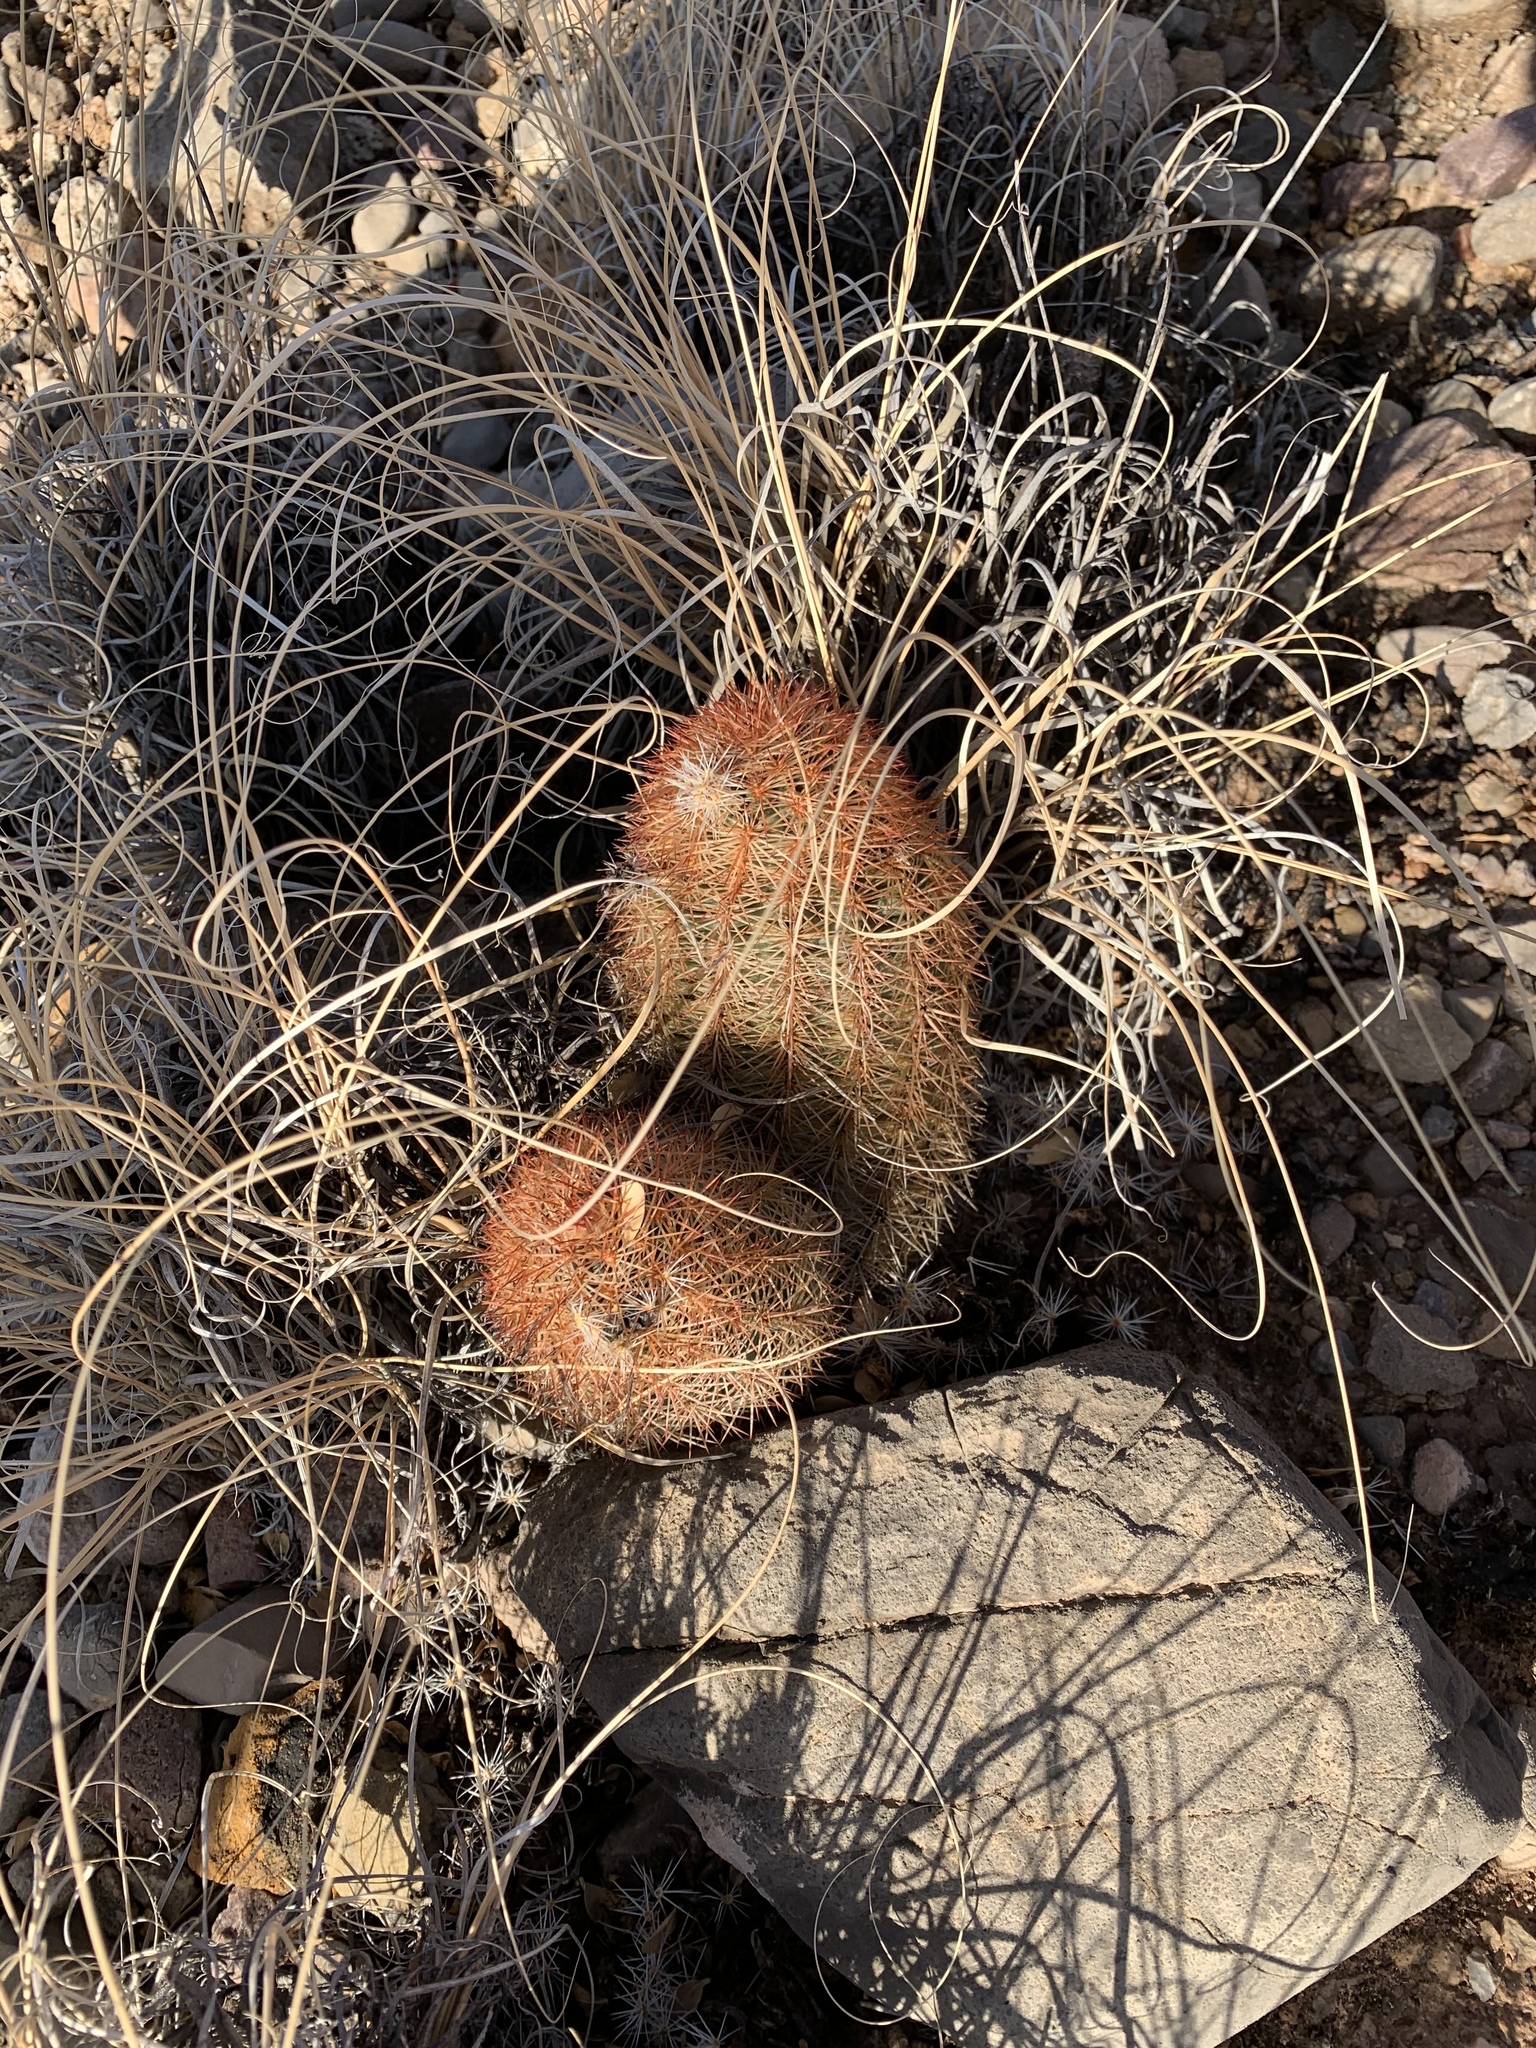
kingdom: Plantae
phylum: Tracheophyta
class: Magnoliopsida
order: Caryophyllales
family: Cactaceae
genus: Echinocereus
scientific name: Echinocereus dasyacanthus
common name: Spiny hedgehog cactus
